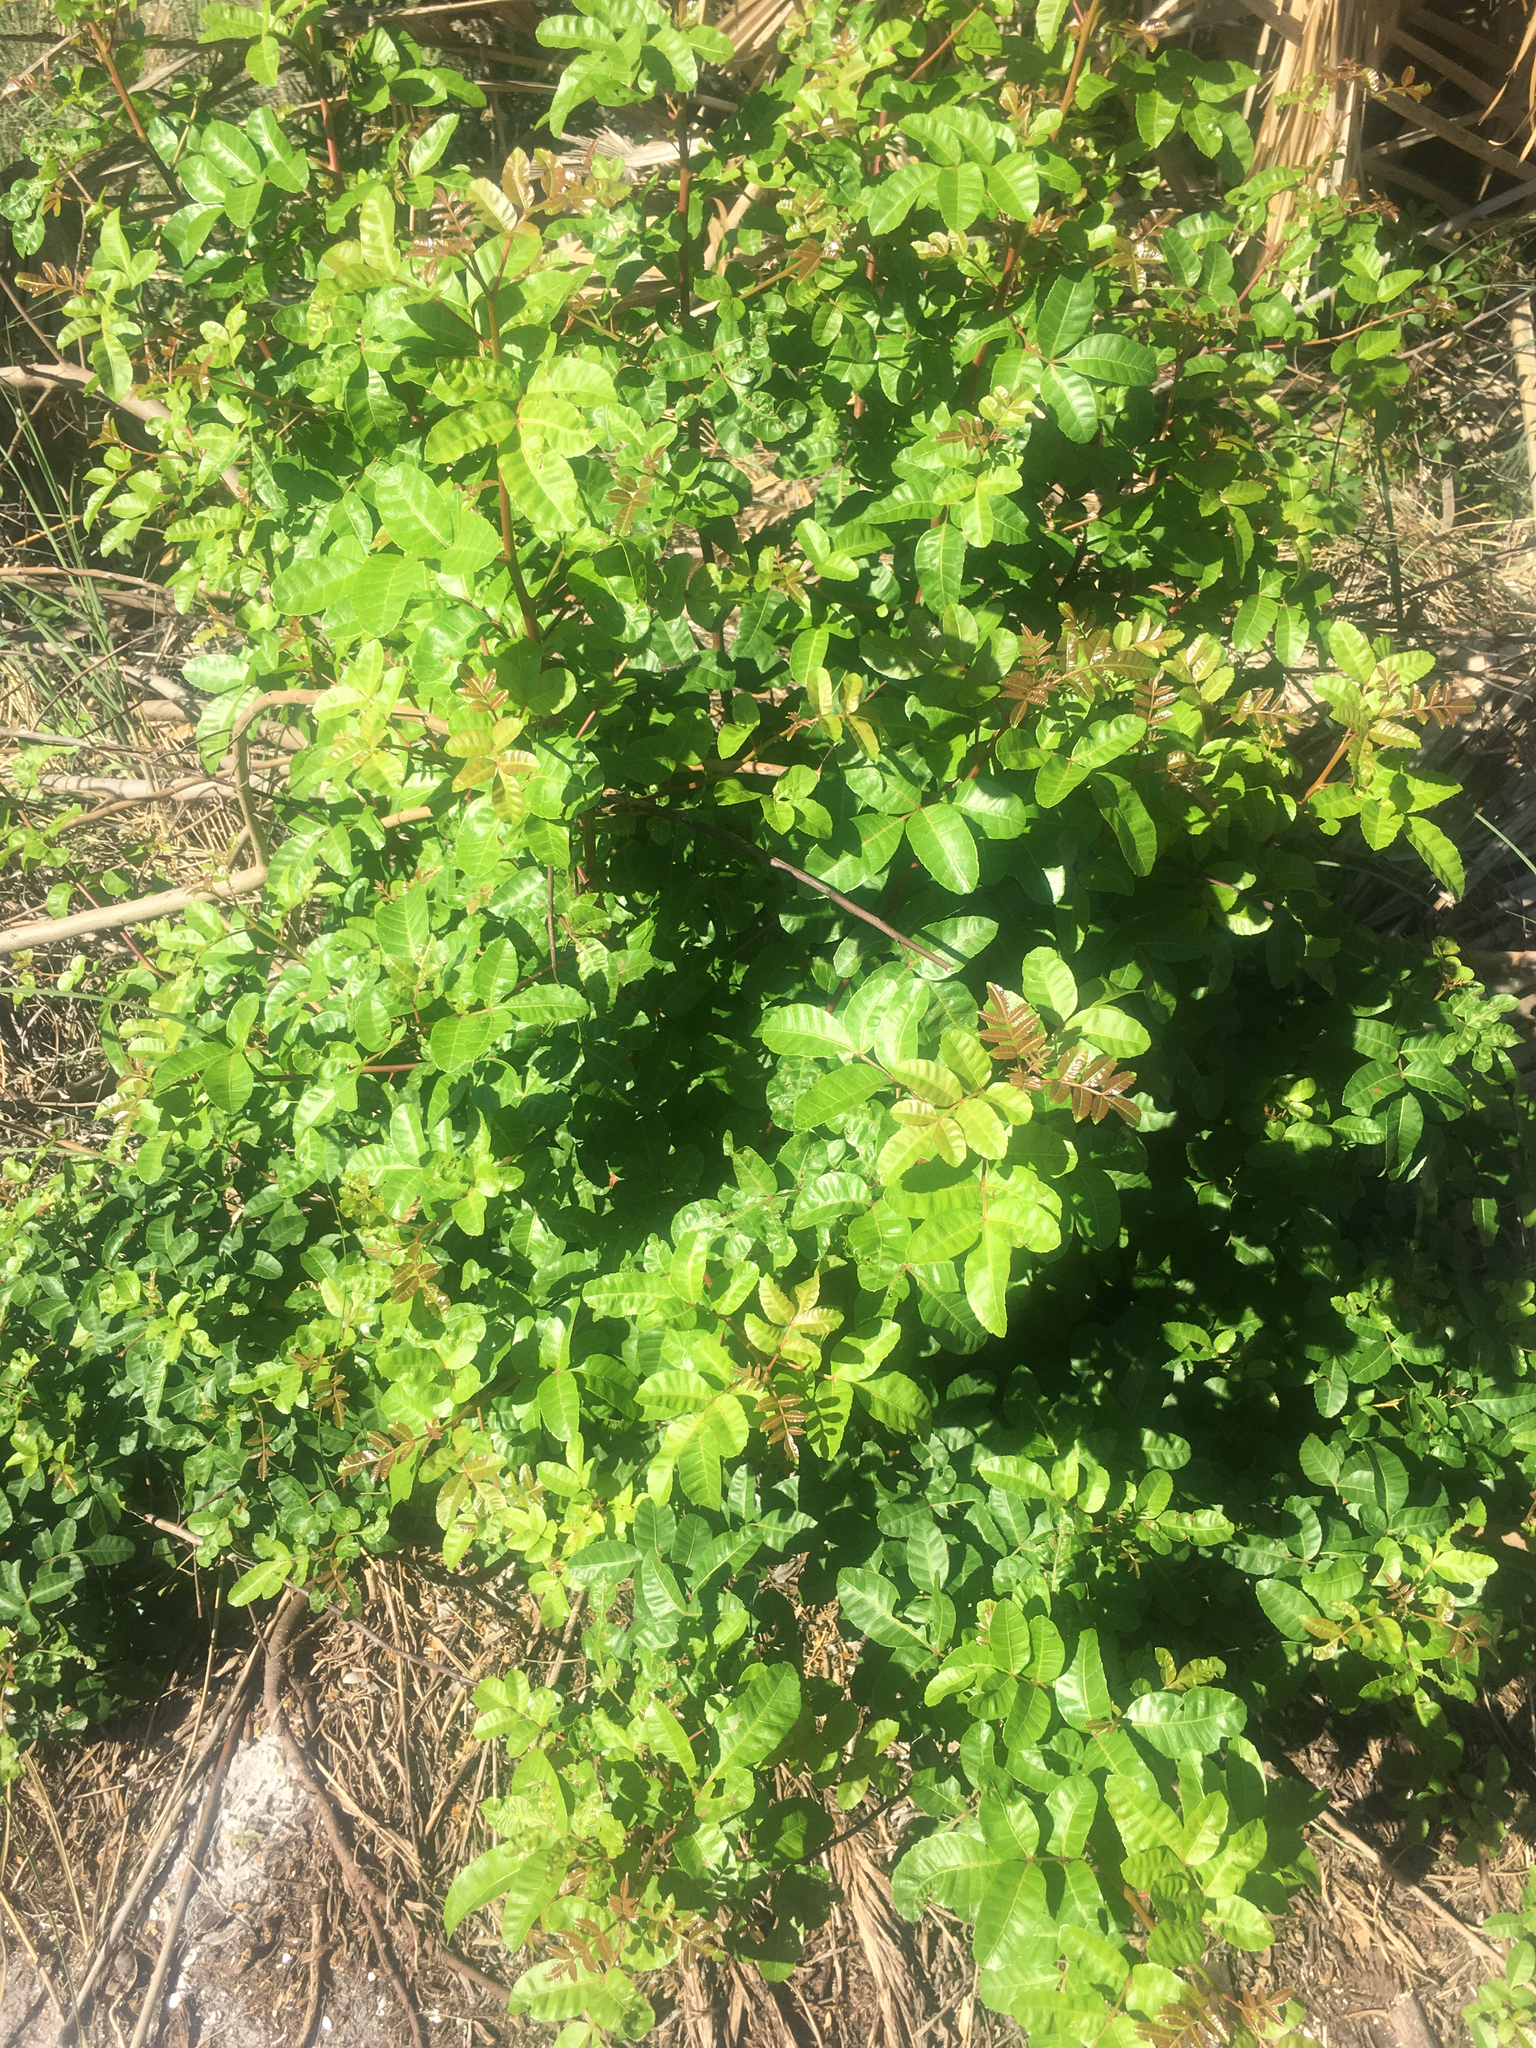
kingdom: Plantae
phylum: Tracheophyta
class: Magnoliopsida
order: Sapindales
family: Anacardiaceae
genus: Schinus
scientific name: Schinus terebinthifolia
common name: Brazilian peppertree
